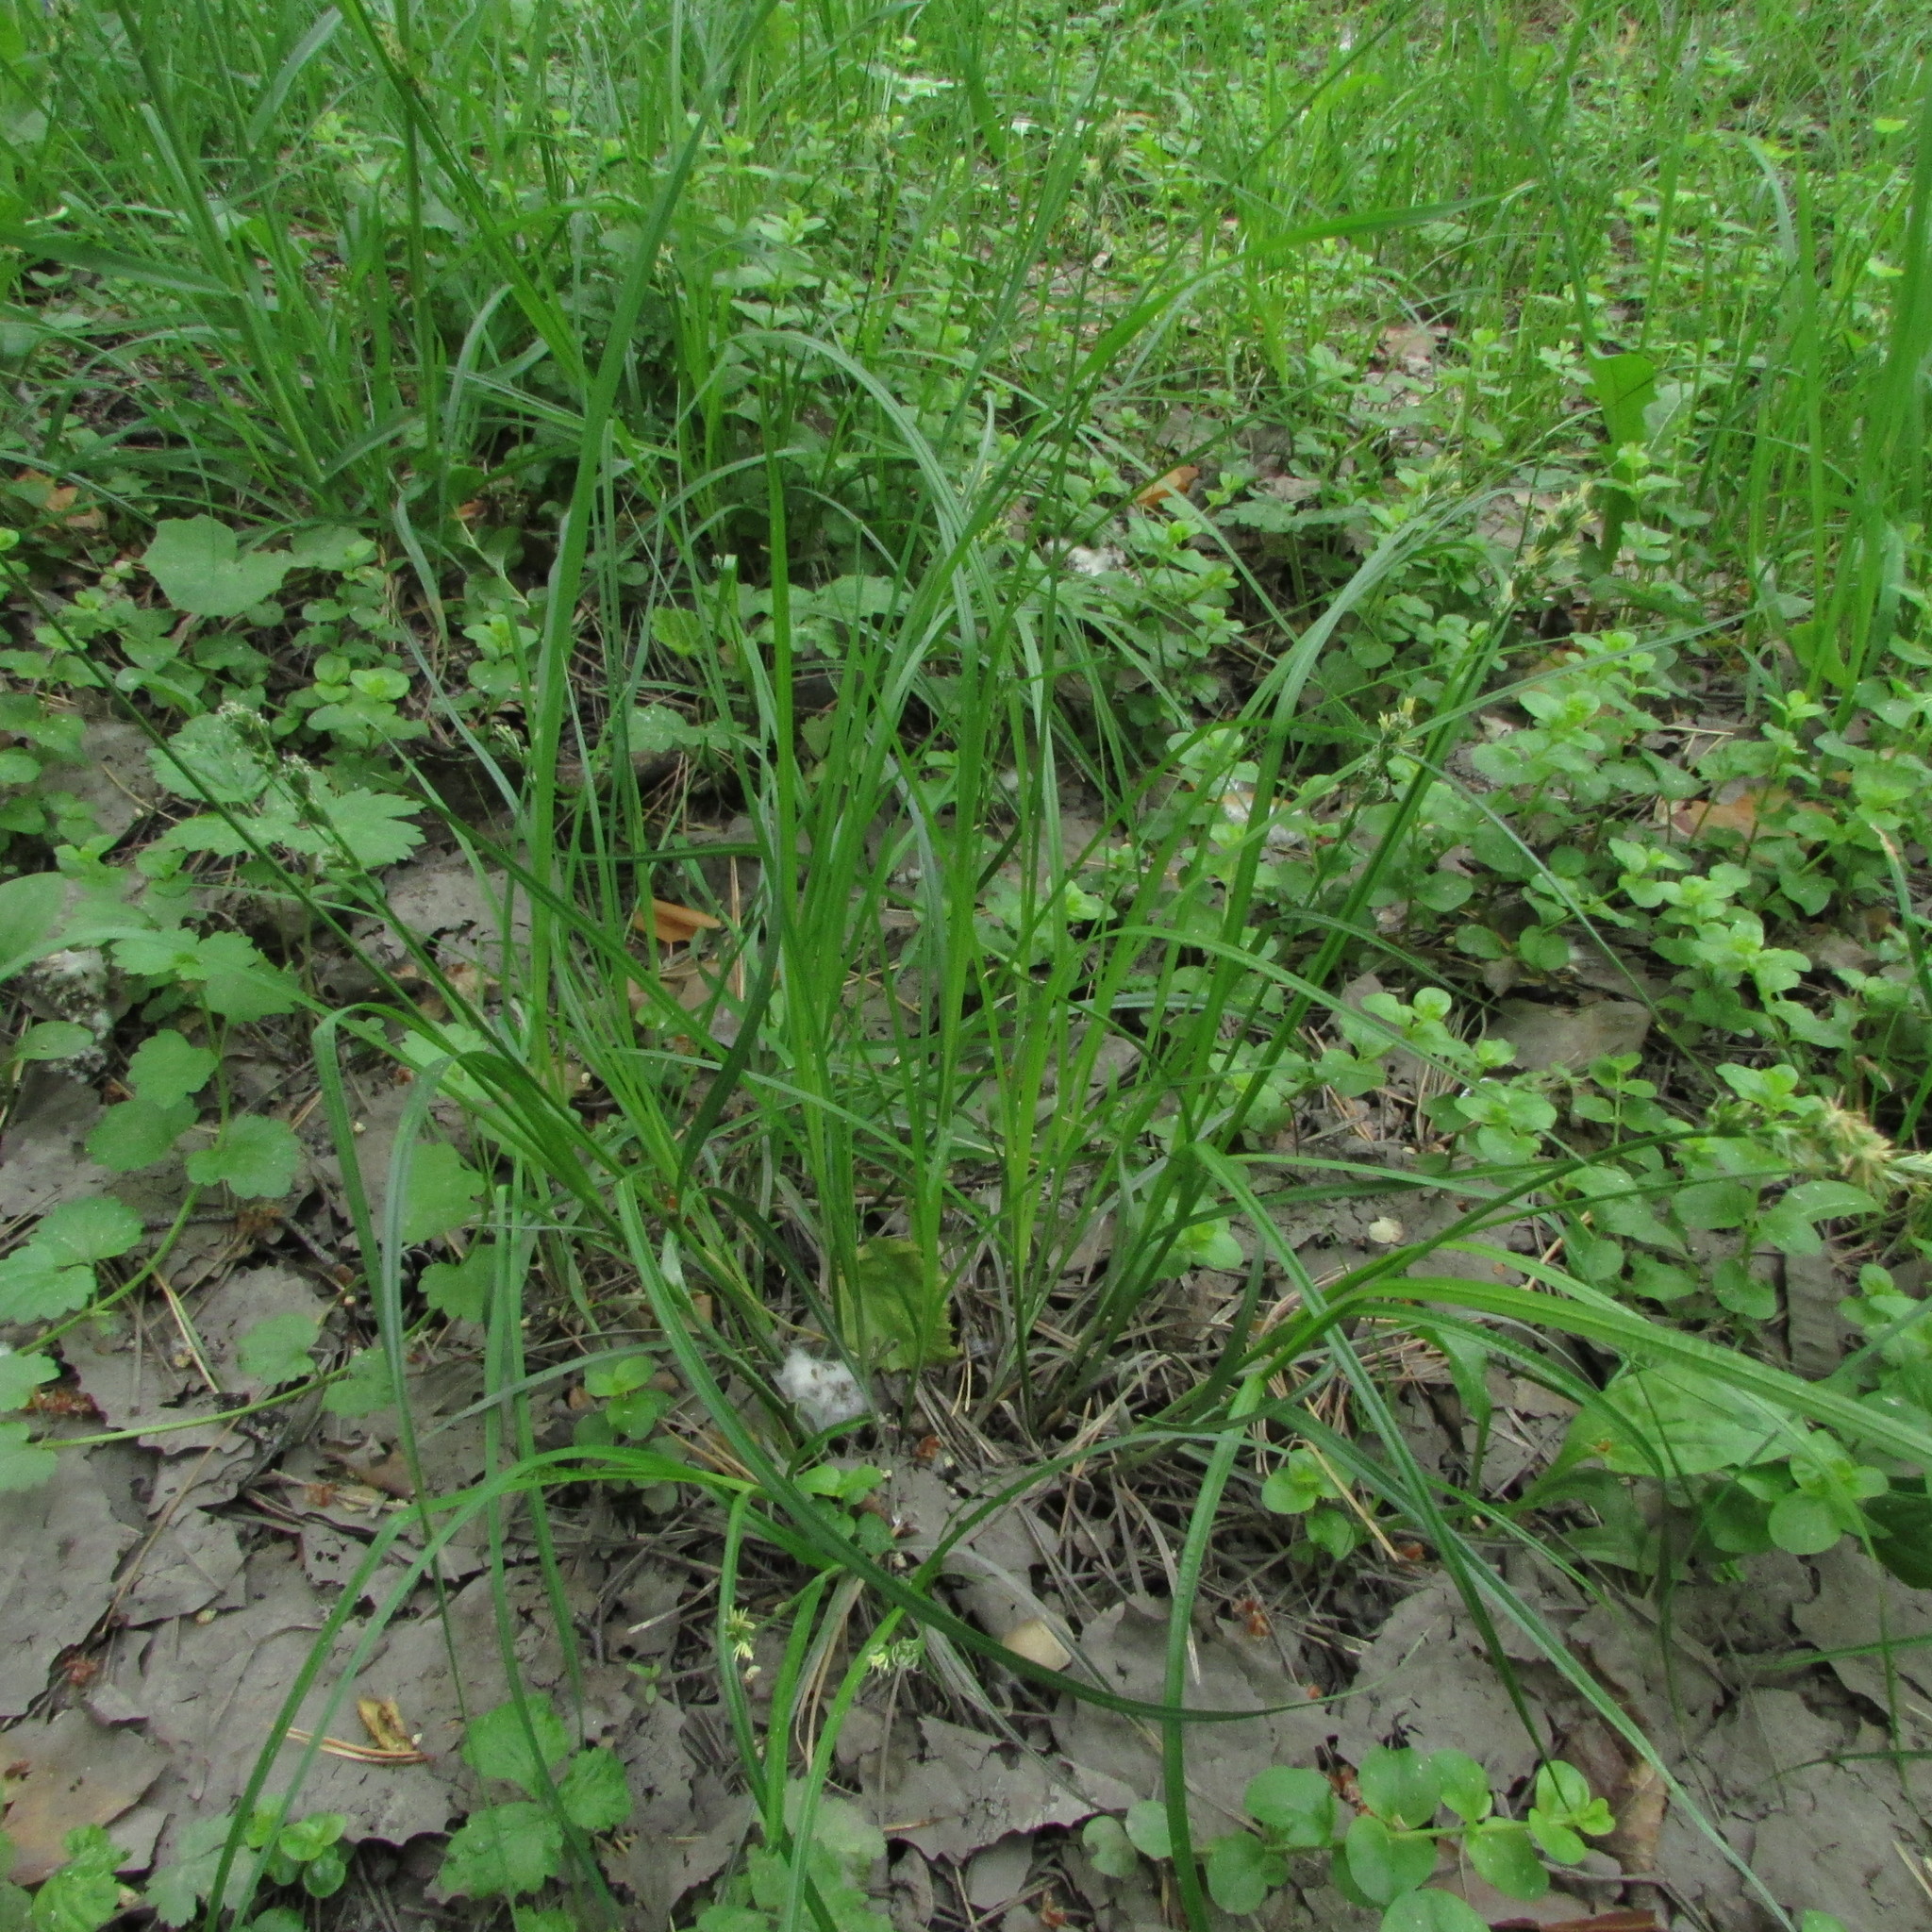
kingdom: Plantae
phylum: Tracheophyta
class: Liliopsida
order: Poales
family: Cyperaceae
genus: Carex
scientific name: Carex spicata
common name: Spiked sedge
